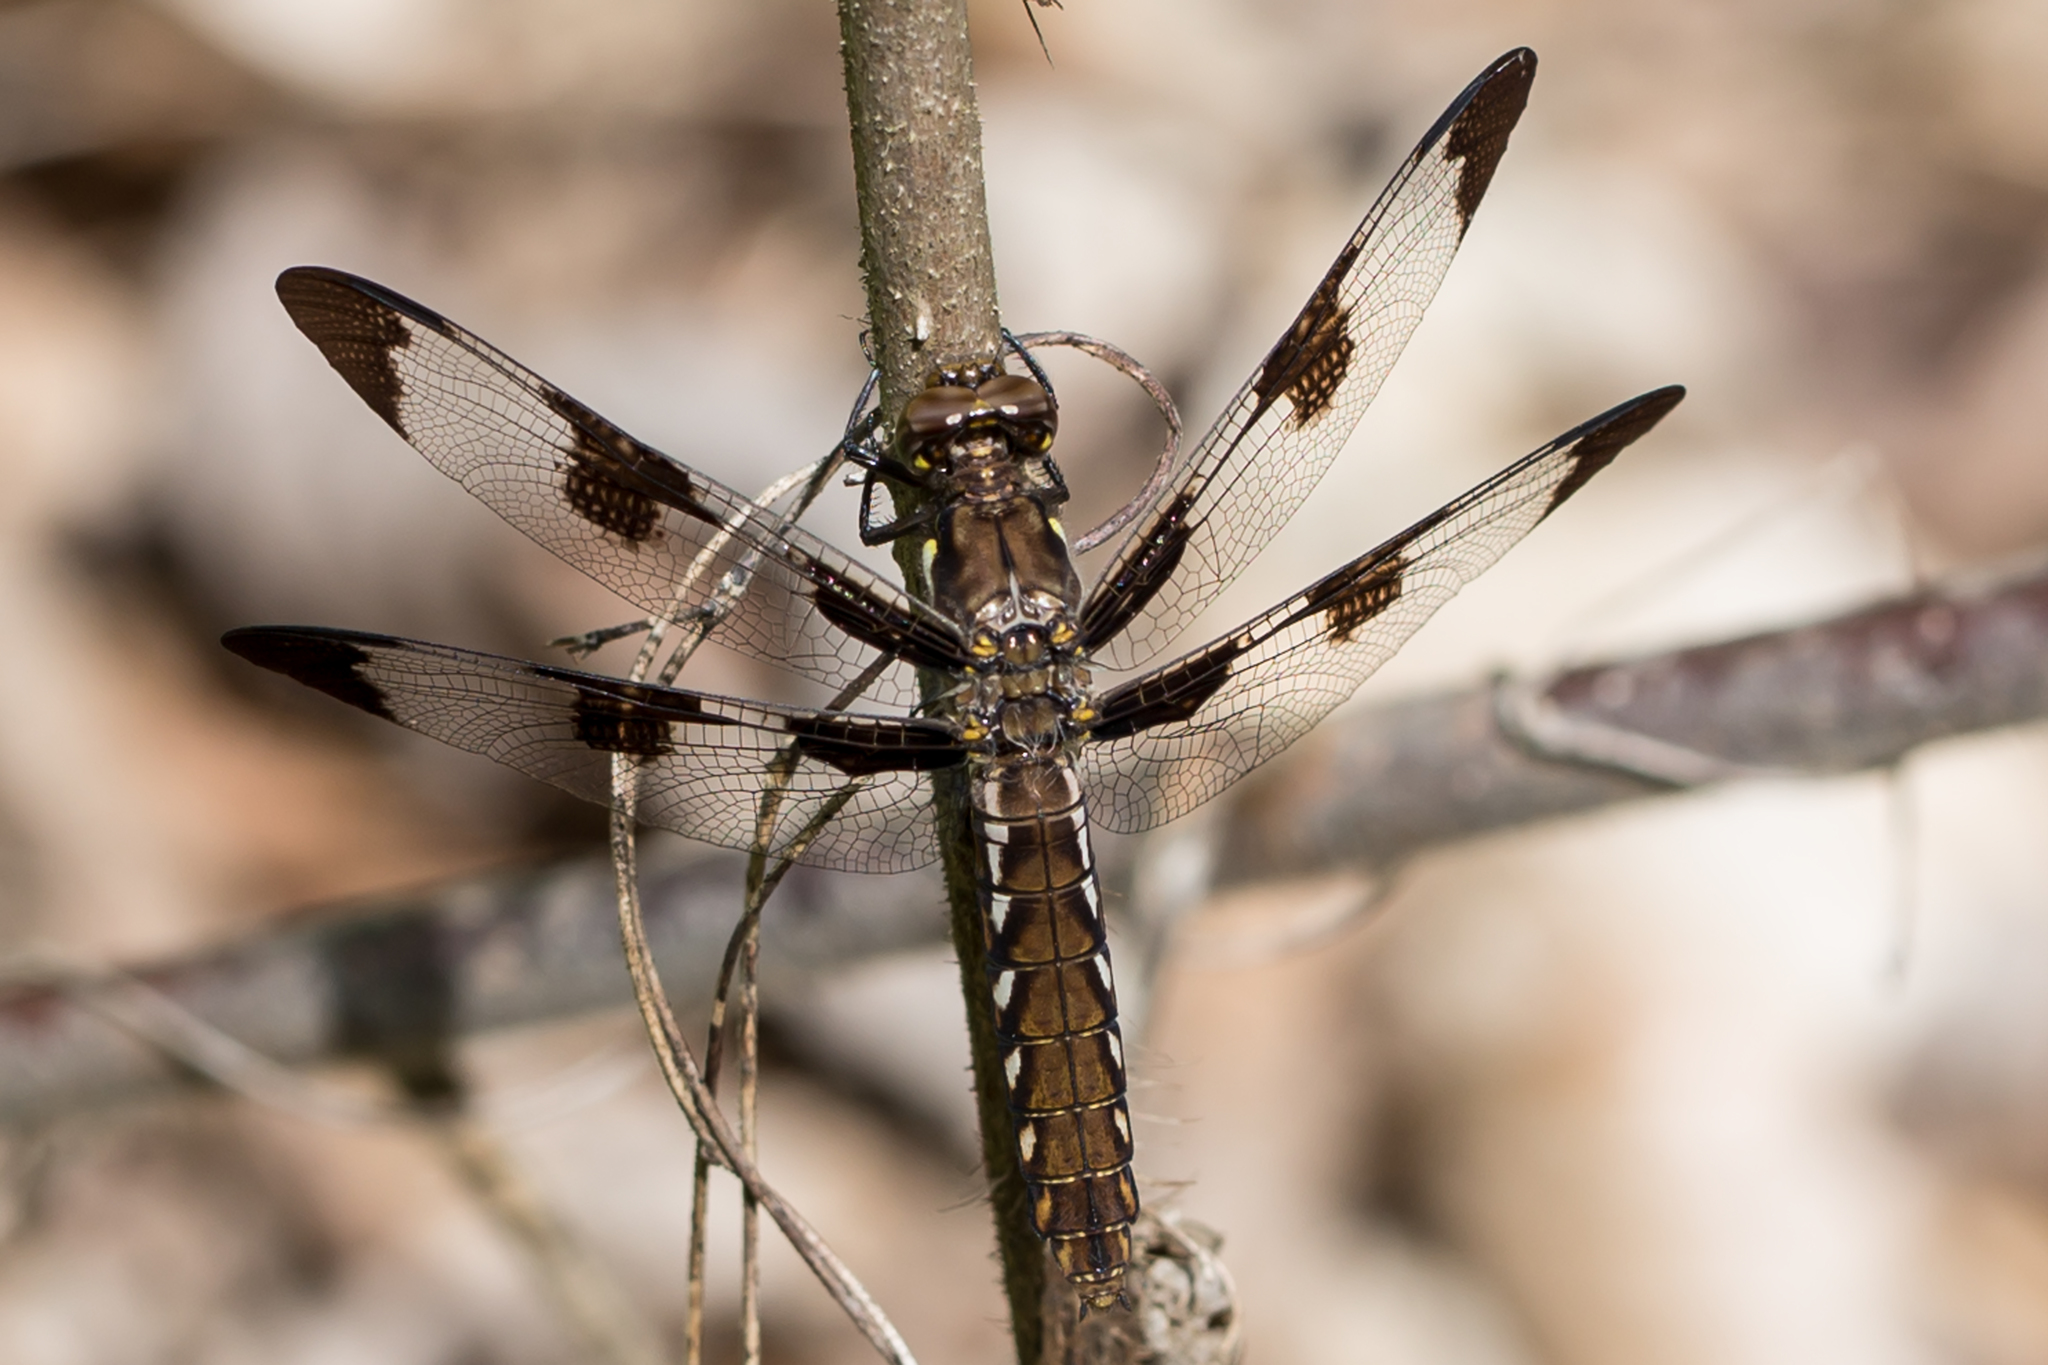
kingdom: Animalia
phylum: Arthropoda
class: Insecta
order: Odonata
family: Libellulidae
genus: Plathemis
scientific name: Plathemis lydia
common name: Common whitetail
